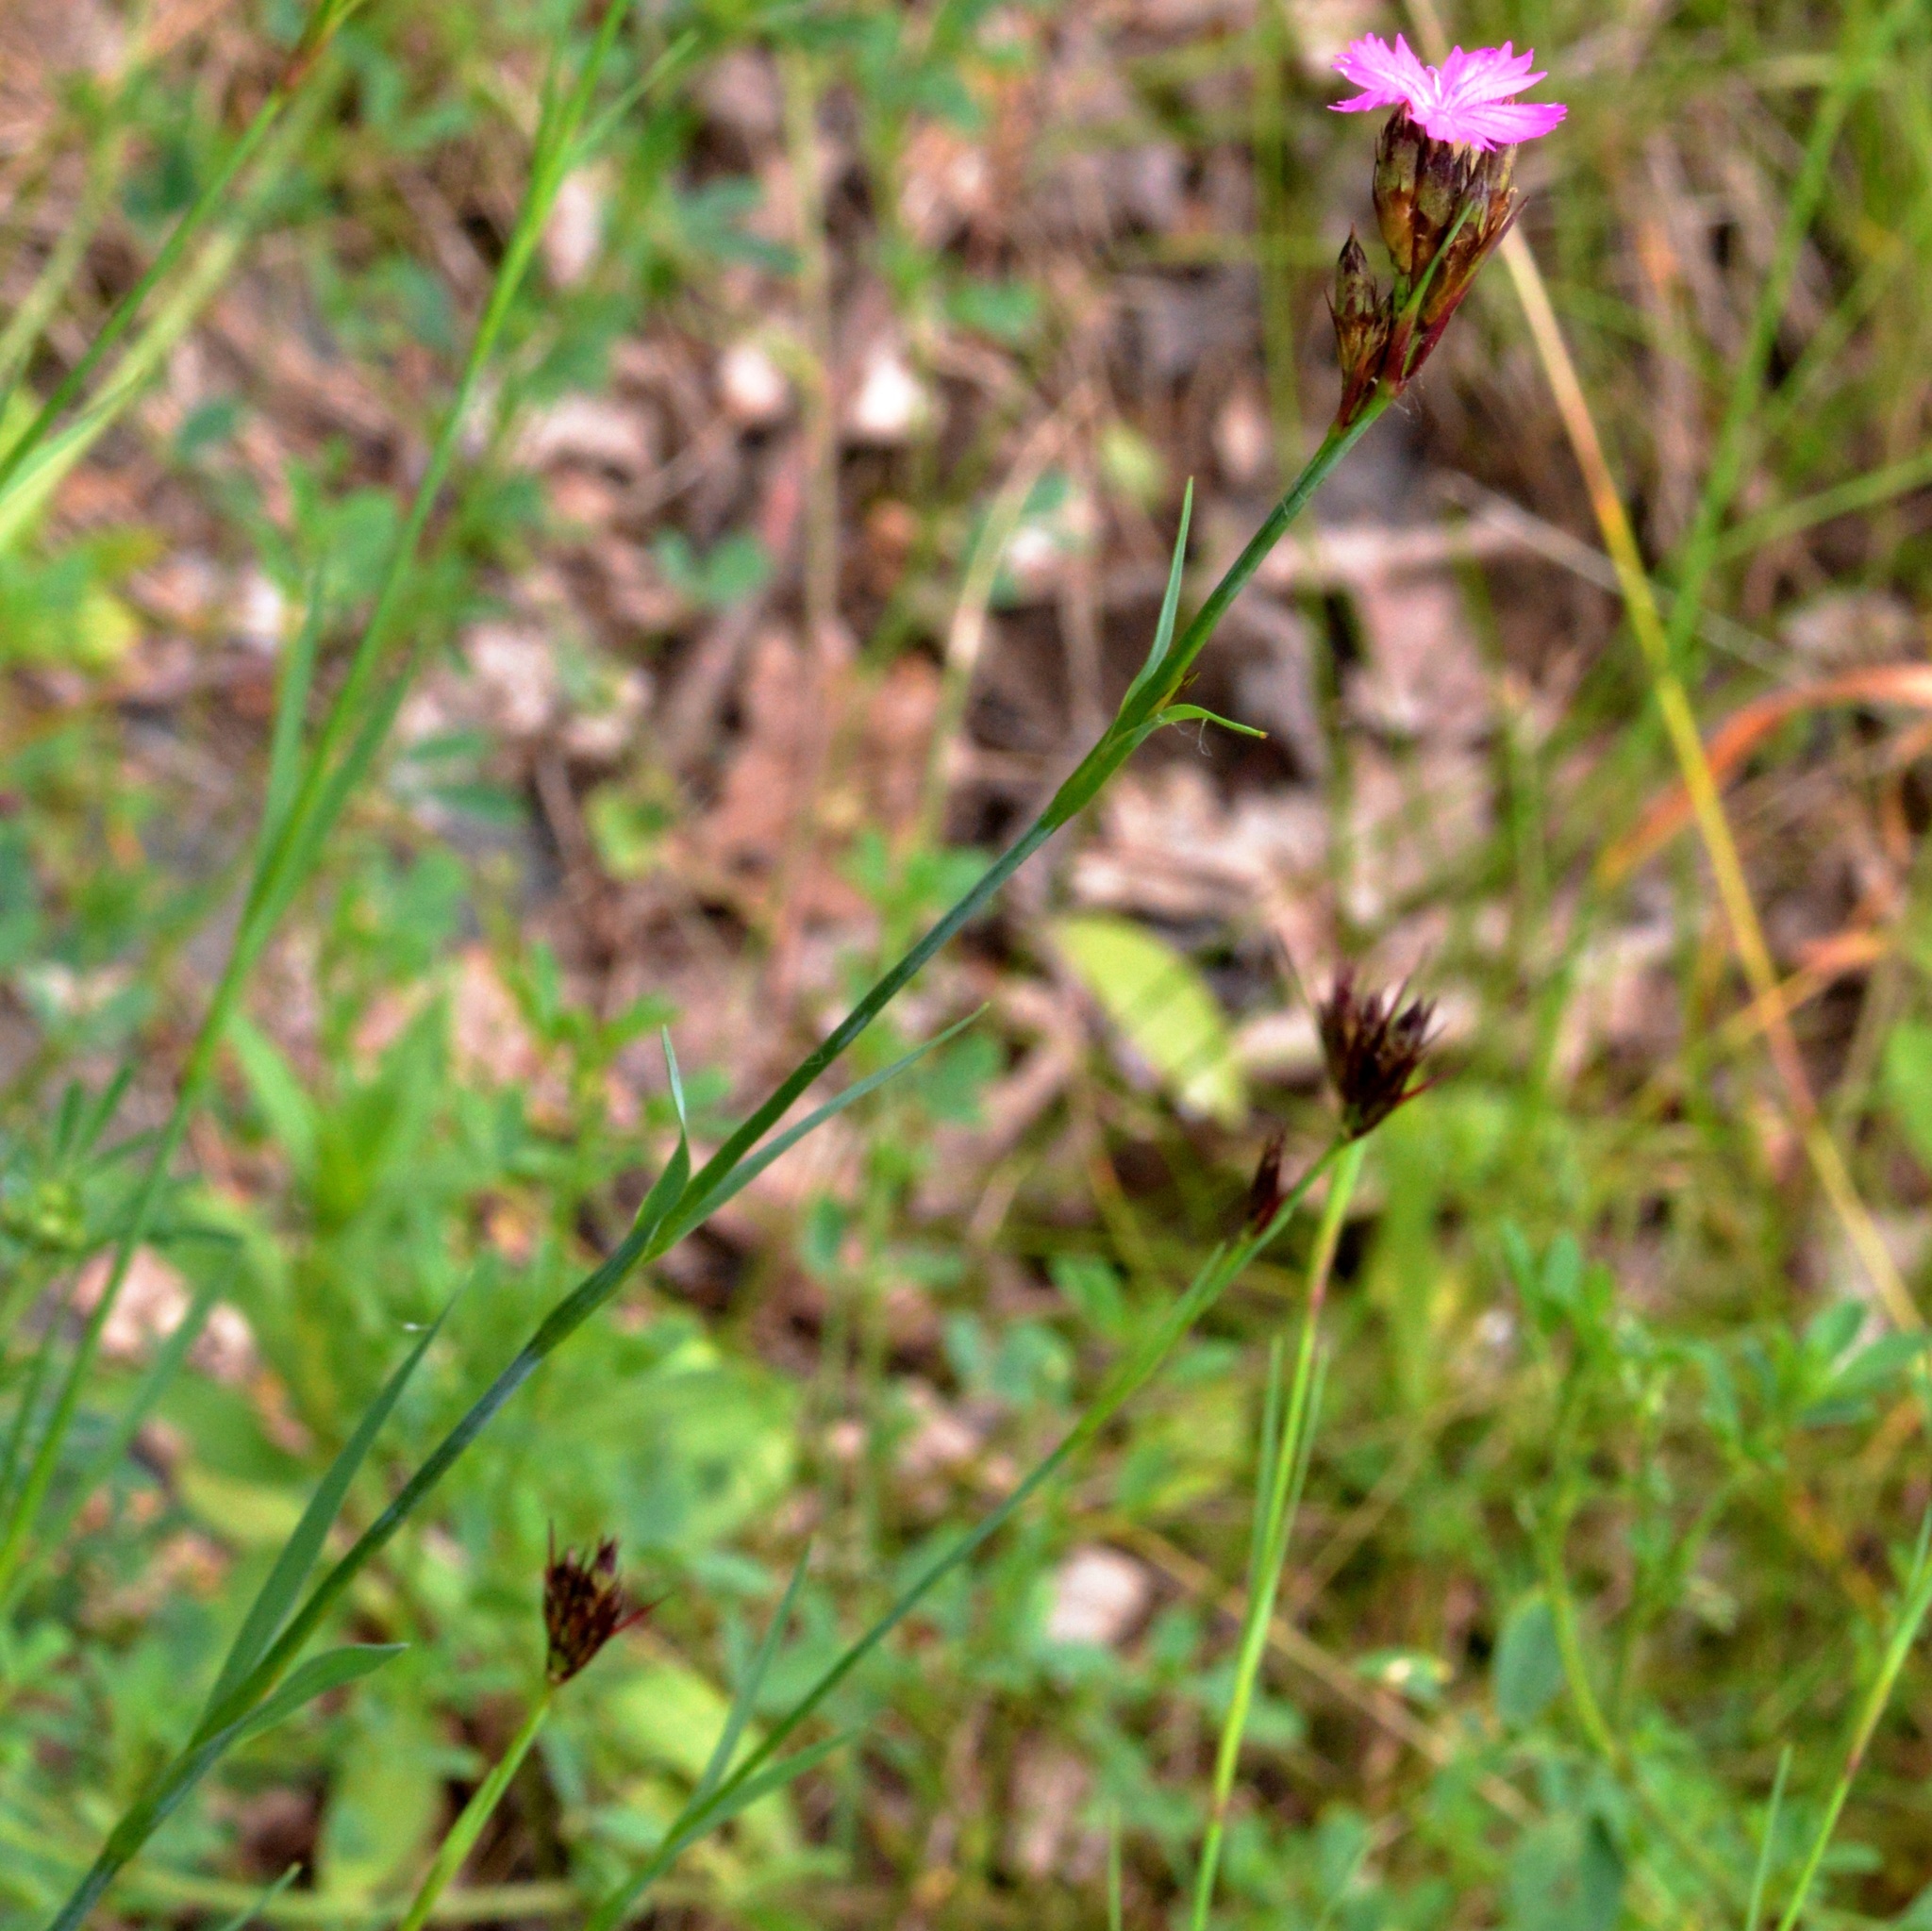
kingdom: Plantae
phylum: Tracheophyta
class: Magnoliopsida
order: Caryophyllales
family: Caryophyllaceae
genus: Dianthus
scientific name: Dianthus carthusianorum
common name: Carthusian pink
